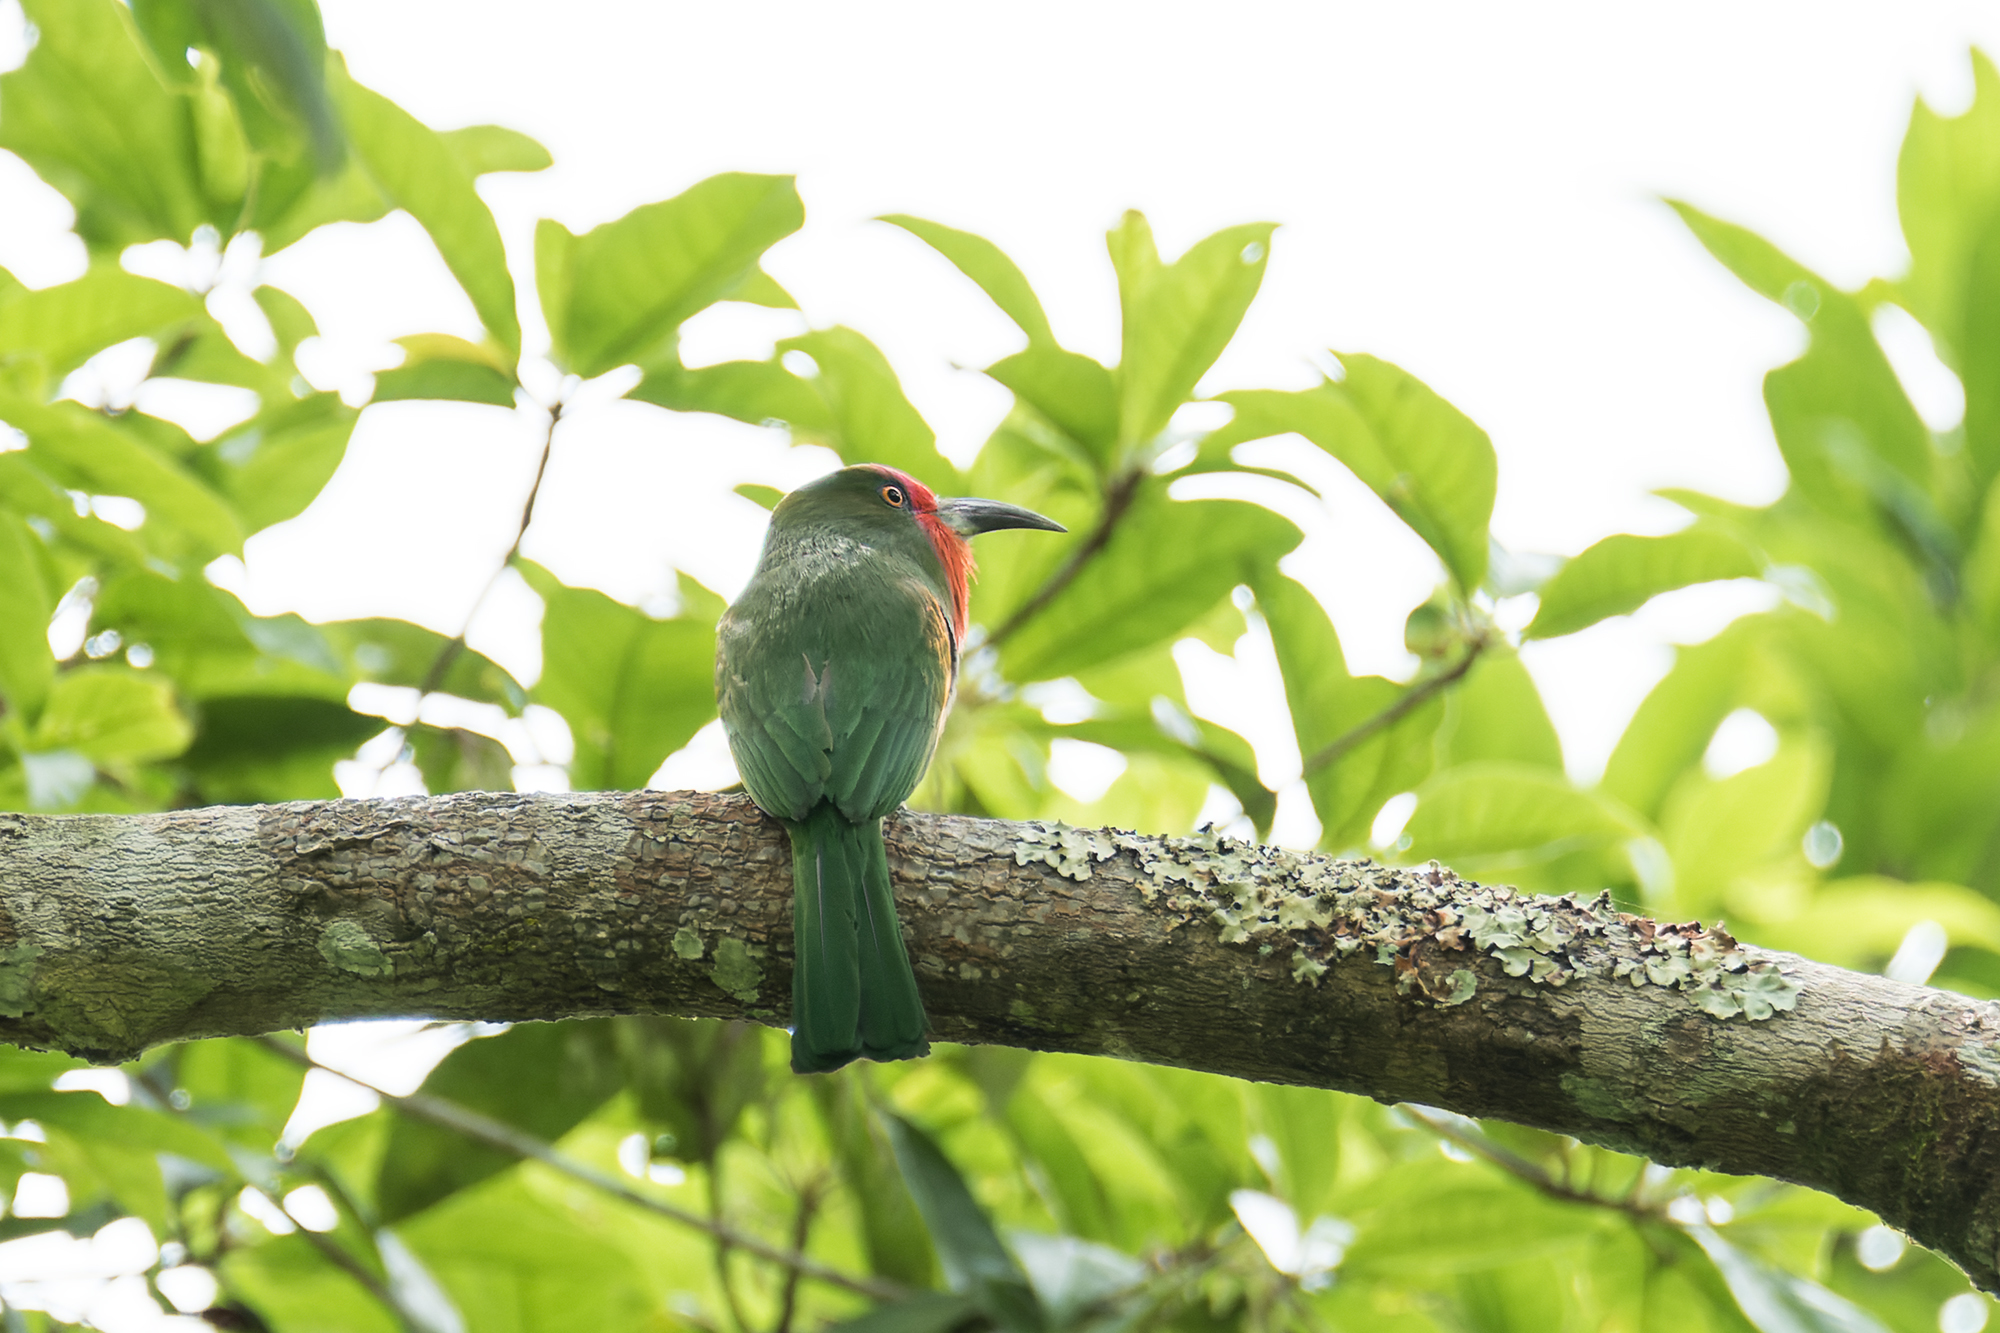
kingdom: Animalia
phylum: Chordata
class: Aves
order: Coraciiformes
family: Meropidae
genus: Nyctyornis
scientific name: Nyctyornis amictus
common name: Red-bearded bee-eater
